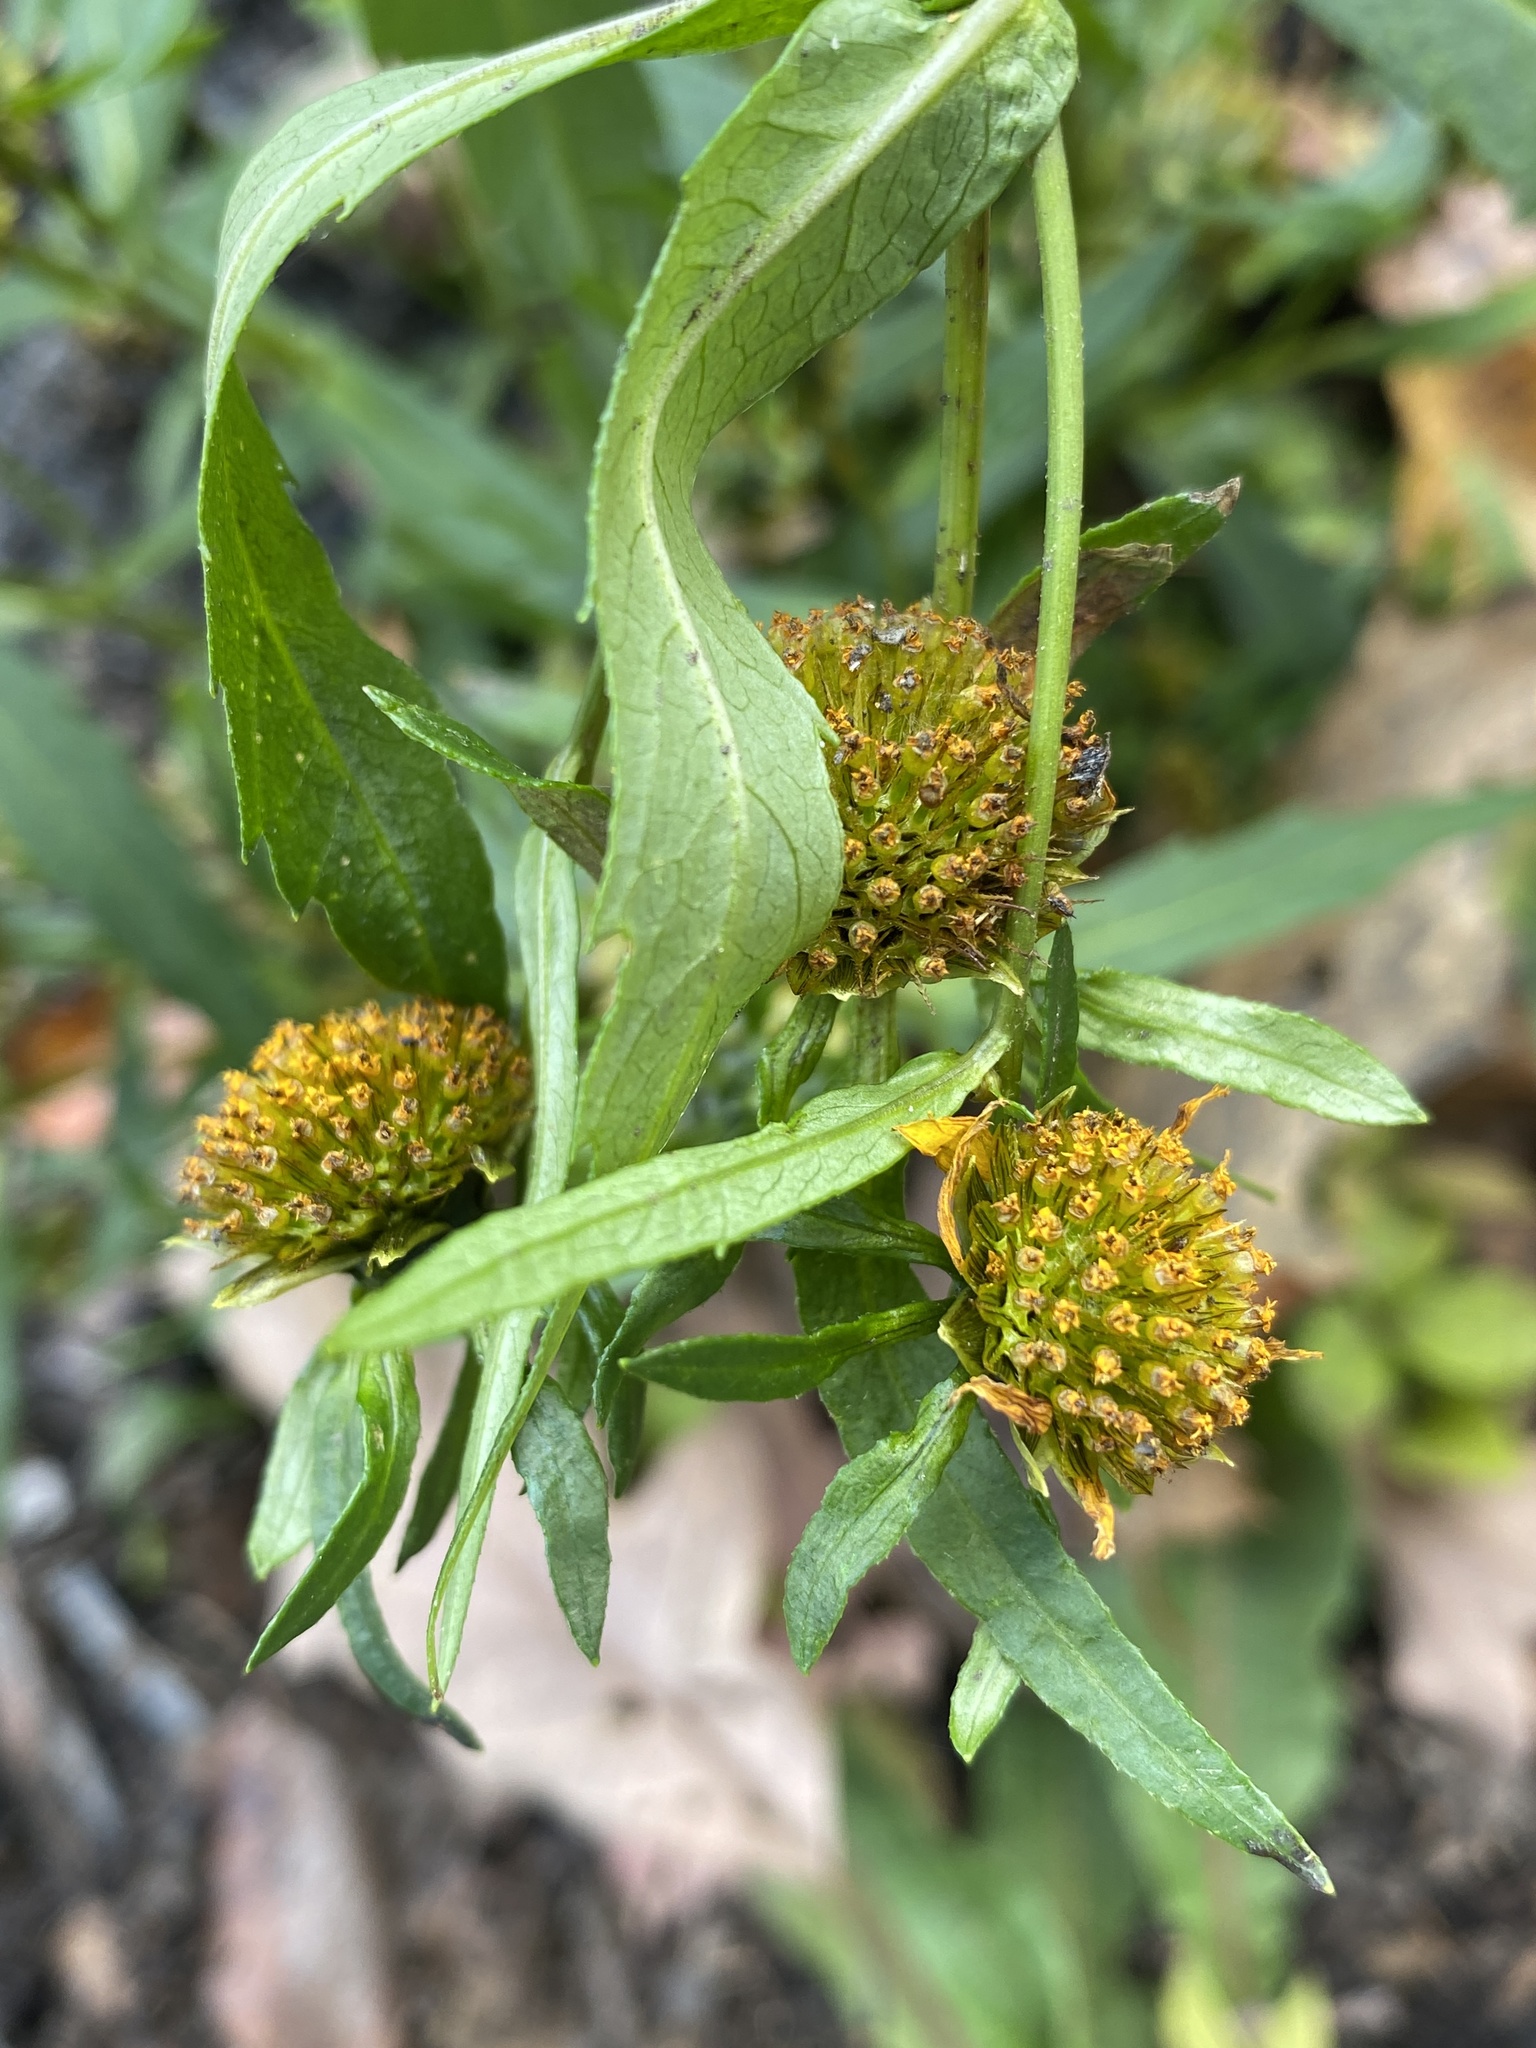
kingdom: Plantae
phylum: Tracheophyta
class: Magnoliopsida
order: Asterales
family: Asteraceae
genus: Bidens
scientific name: Bidens cernua
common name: Nodding bur-marigold
